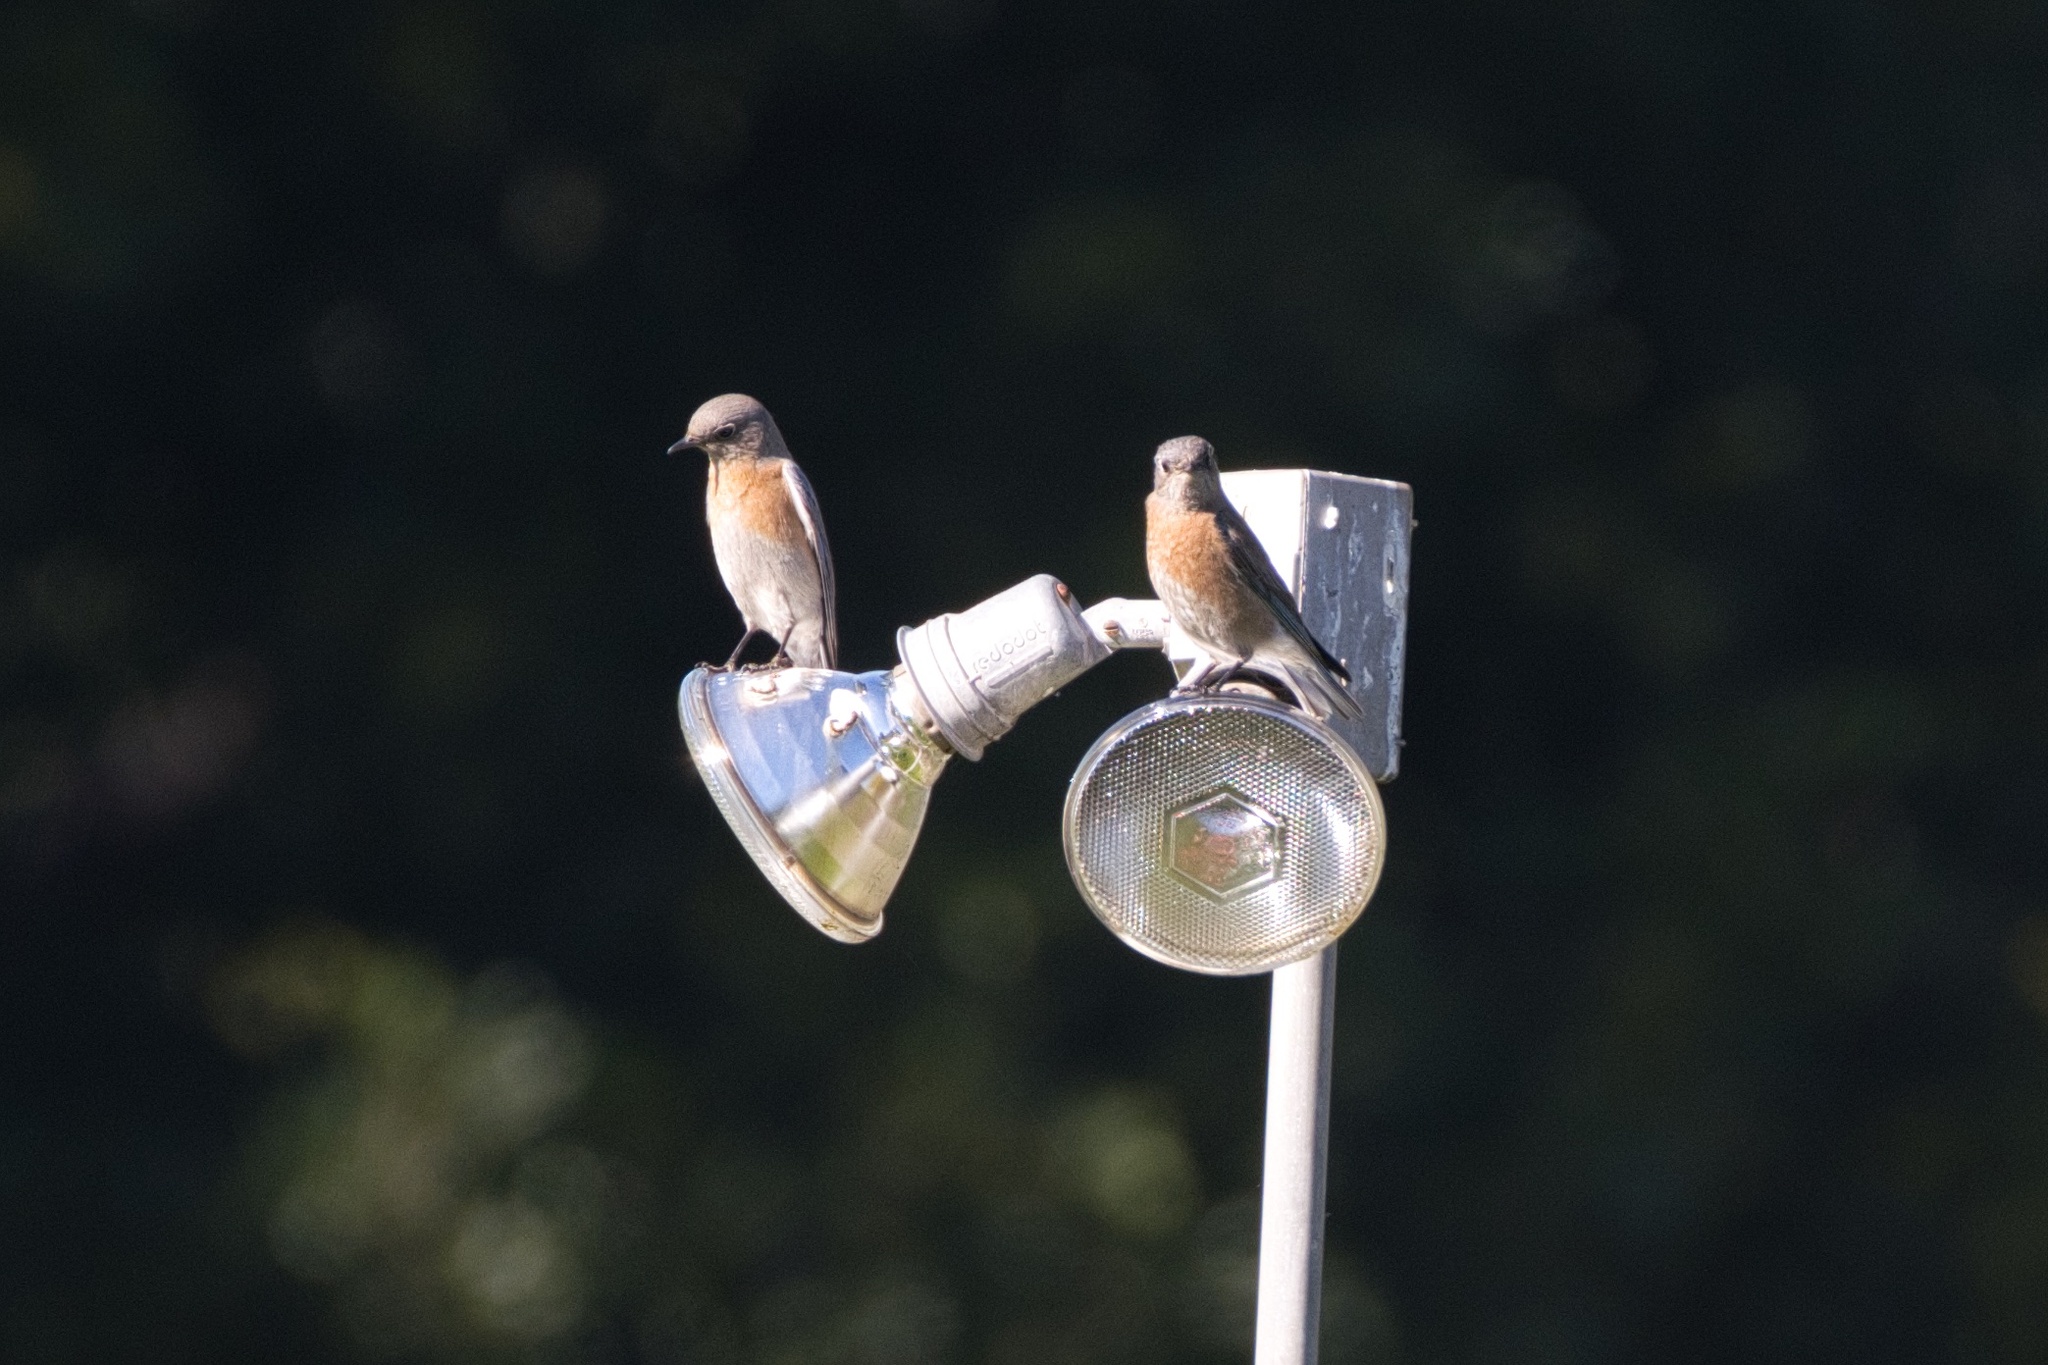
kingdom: Animalia
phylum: Chordata
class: Aves
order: Passeriformes
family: Turdidae
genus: Sialia
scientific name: Sialia mexicana
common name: Western bluebird
